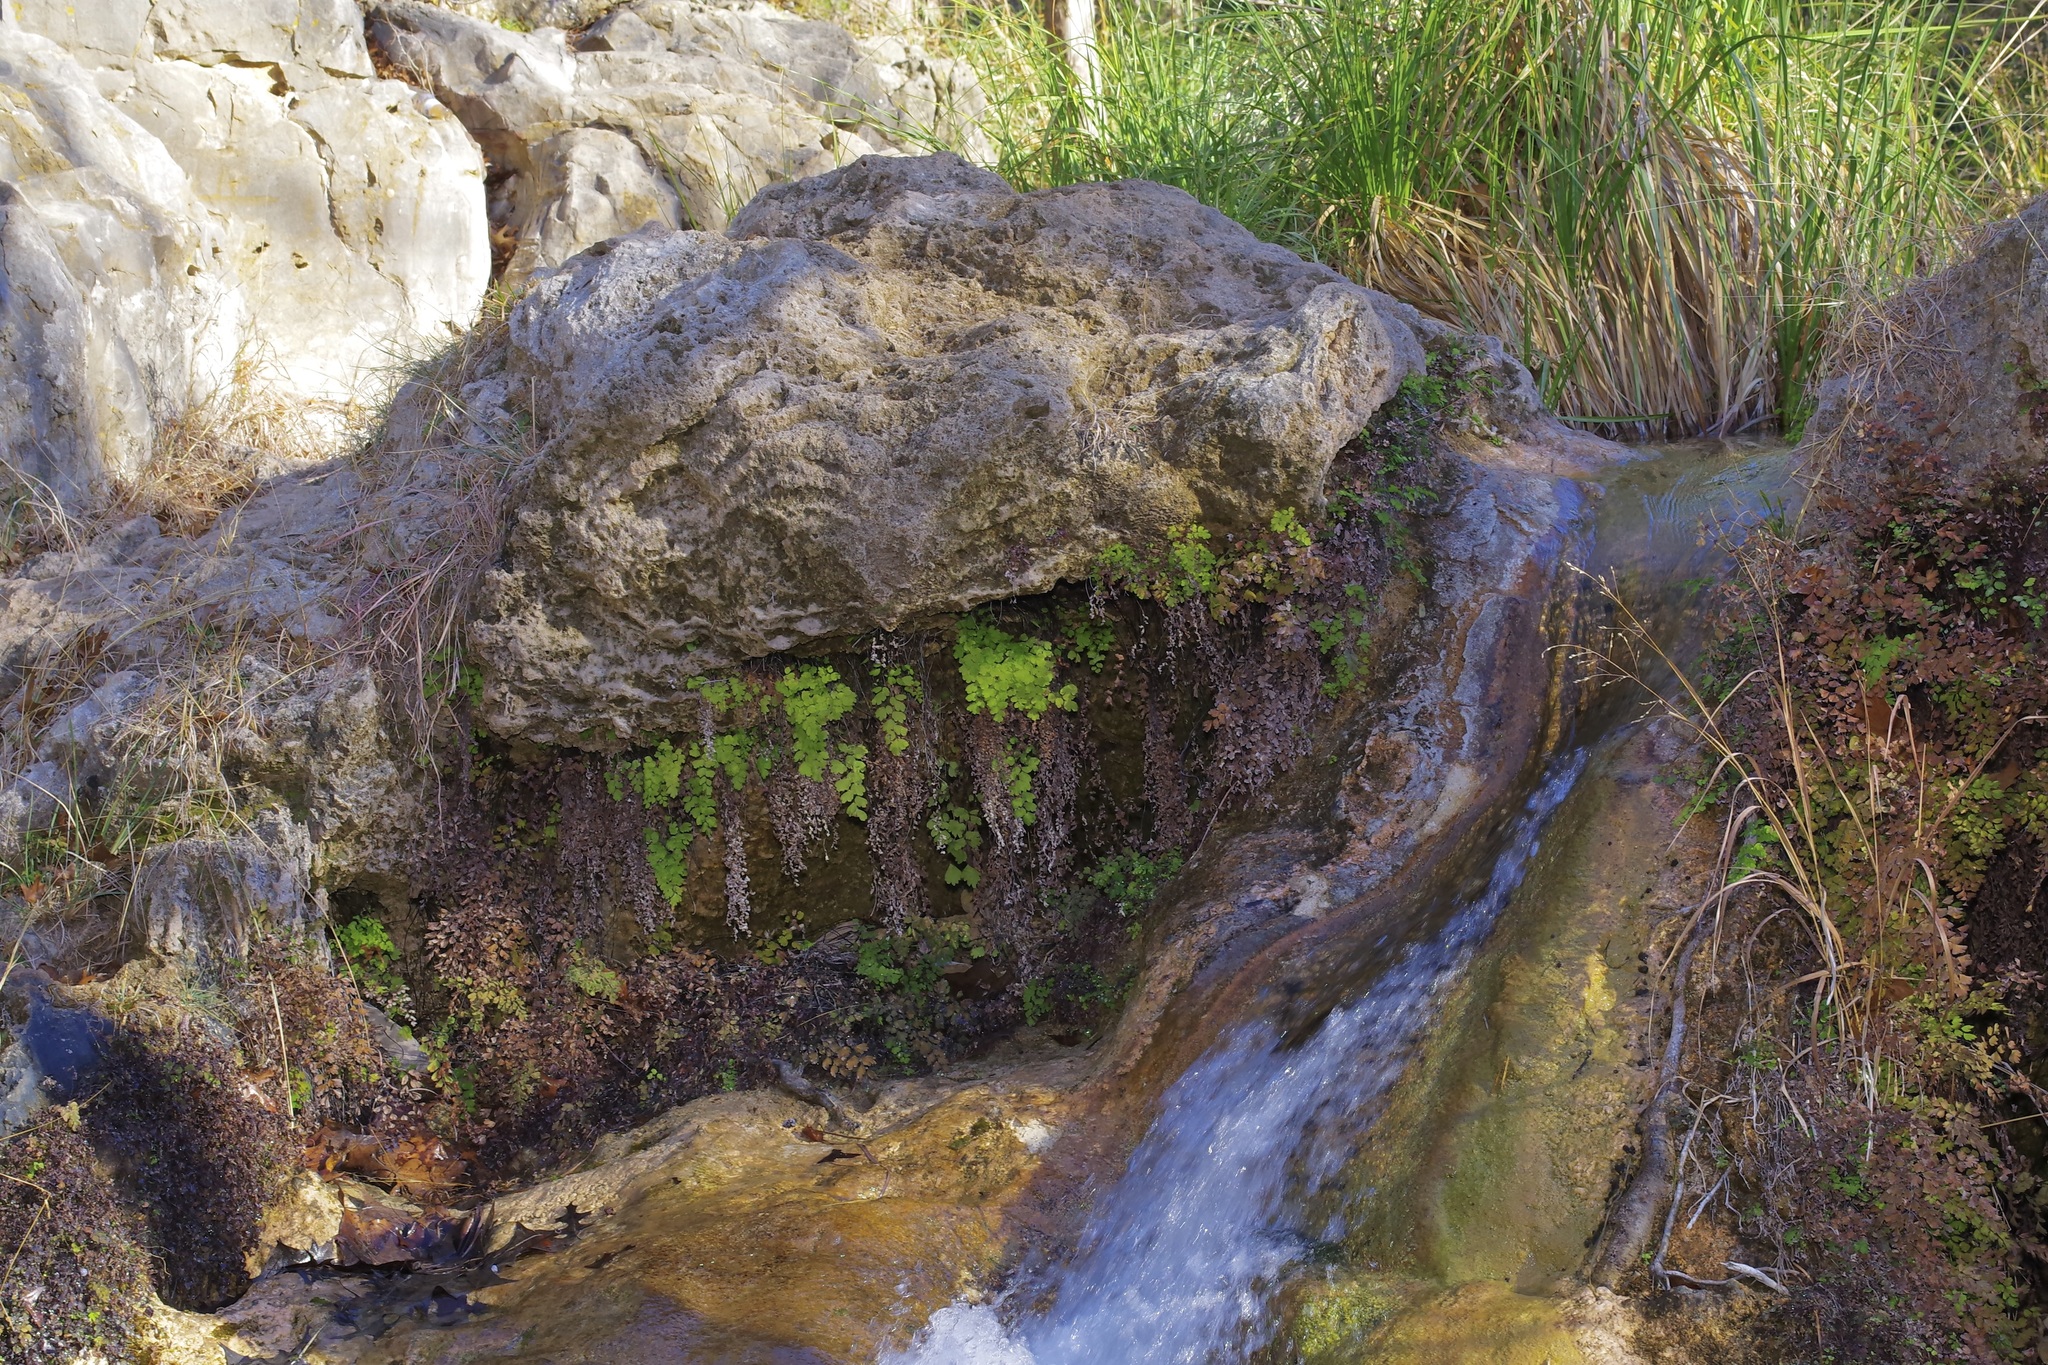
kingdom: Plantae
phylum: Tracheophyta
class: Polypodiopsida
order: Polypodiales
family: Pteridaceae
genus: Adiantum
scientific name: Adiantum capillus-veneris
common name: Maidenhair fern
